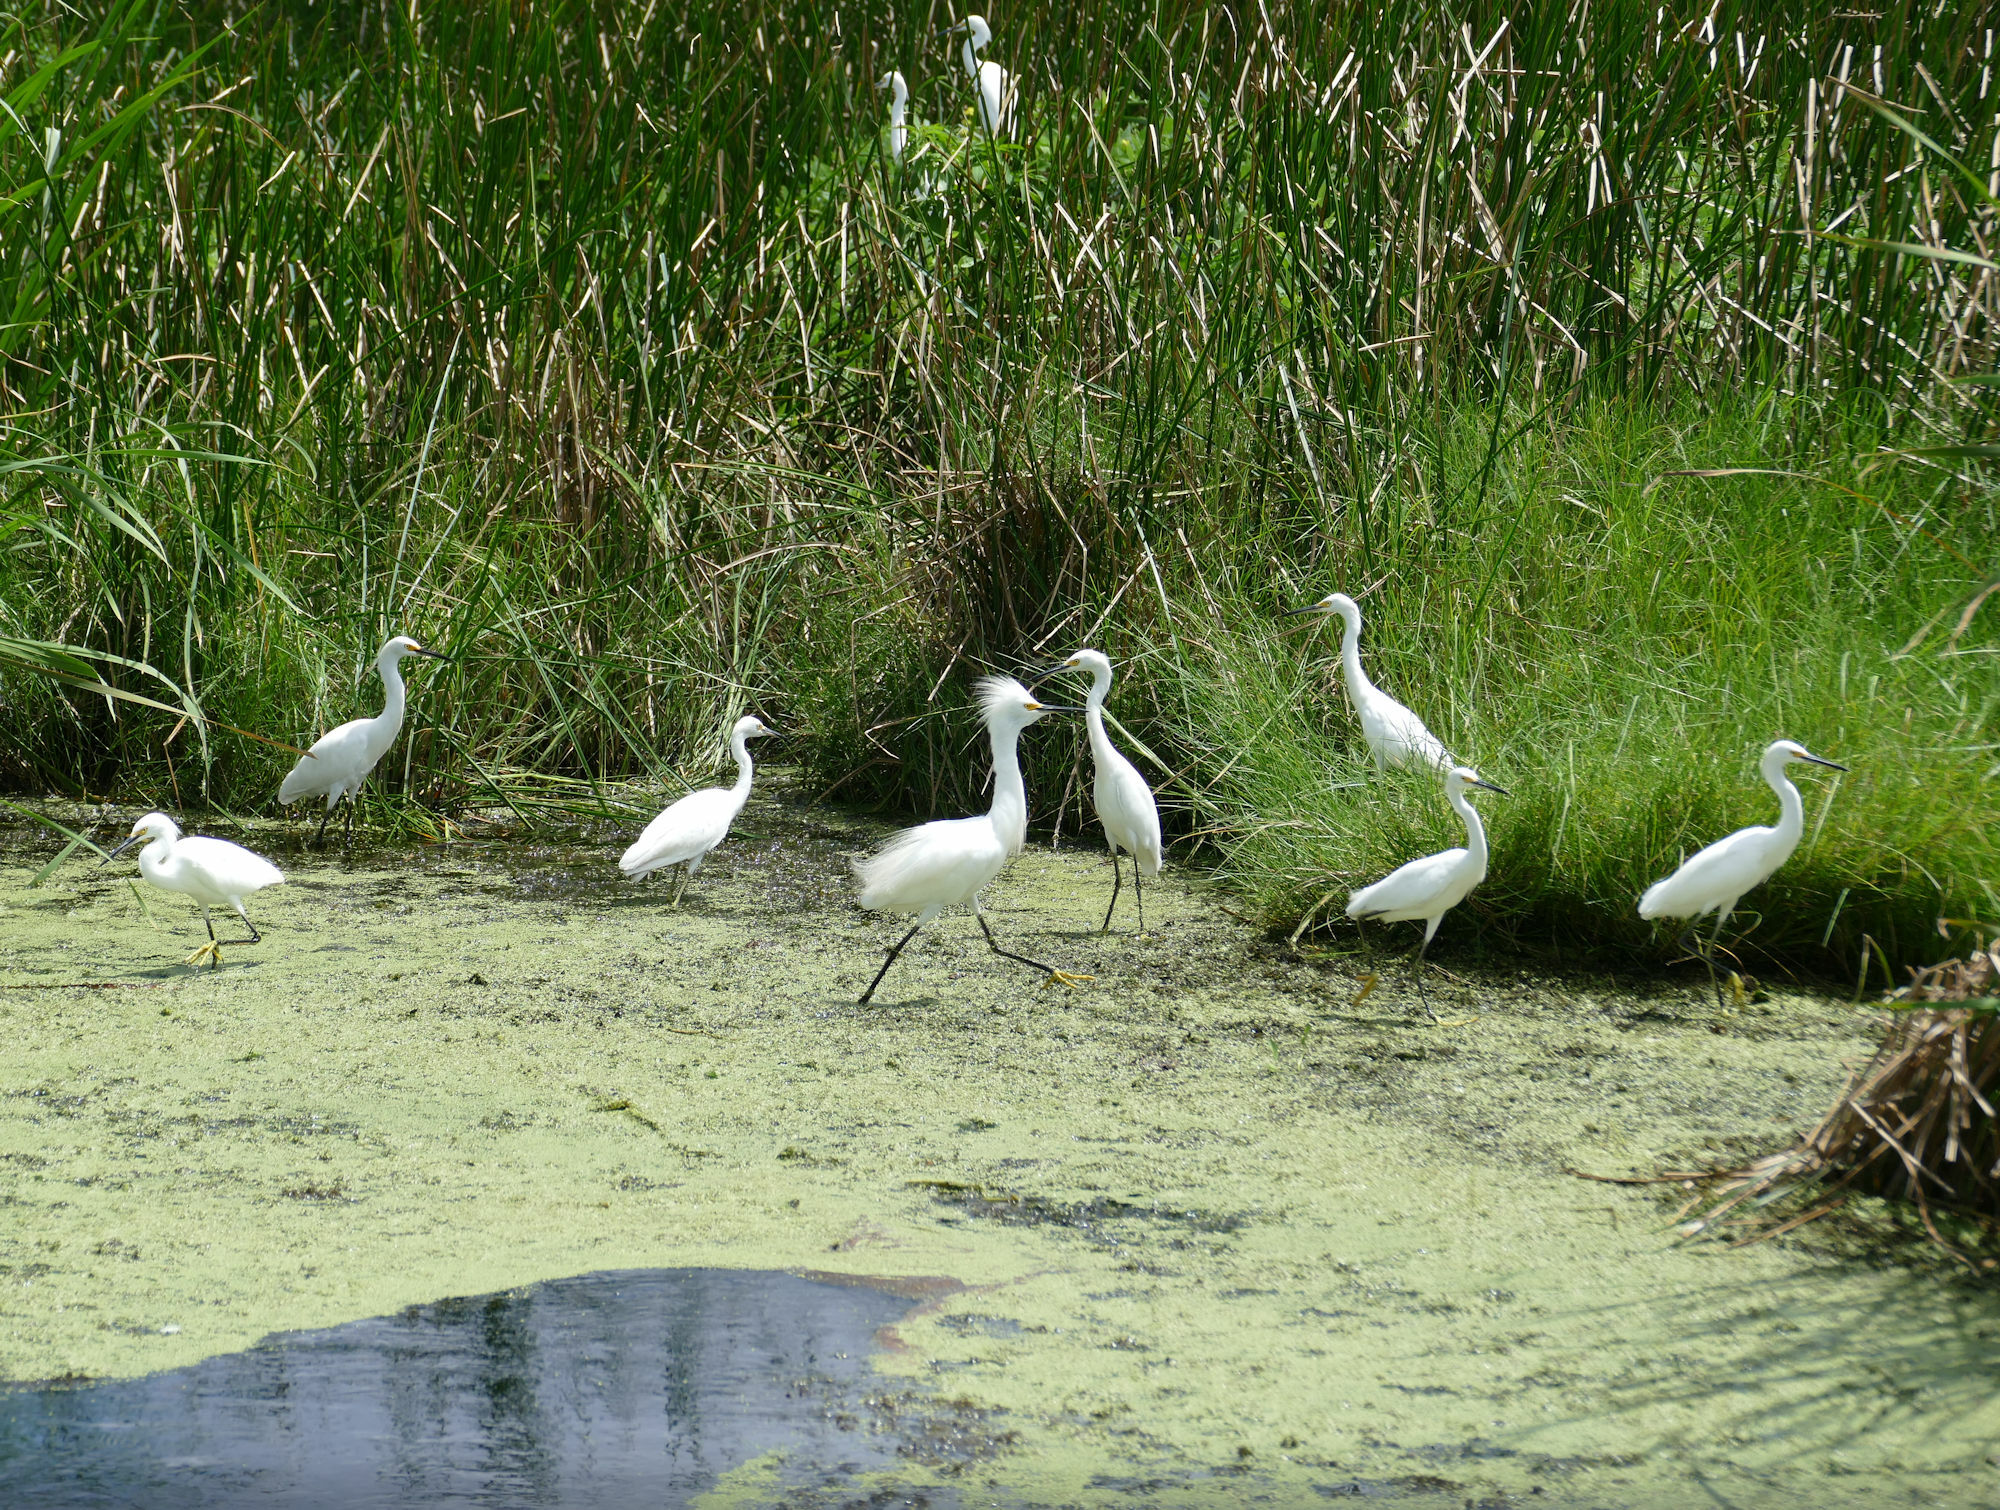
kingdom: Animalia
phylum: Chordata
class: Aves
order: Pelecaniformes
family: Ardeidae
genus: Egretta
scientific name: Egretta thula
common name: Snowy egret
